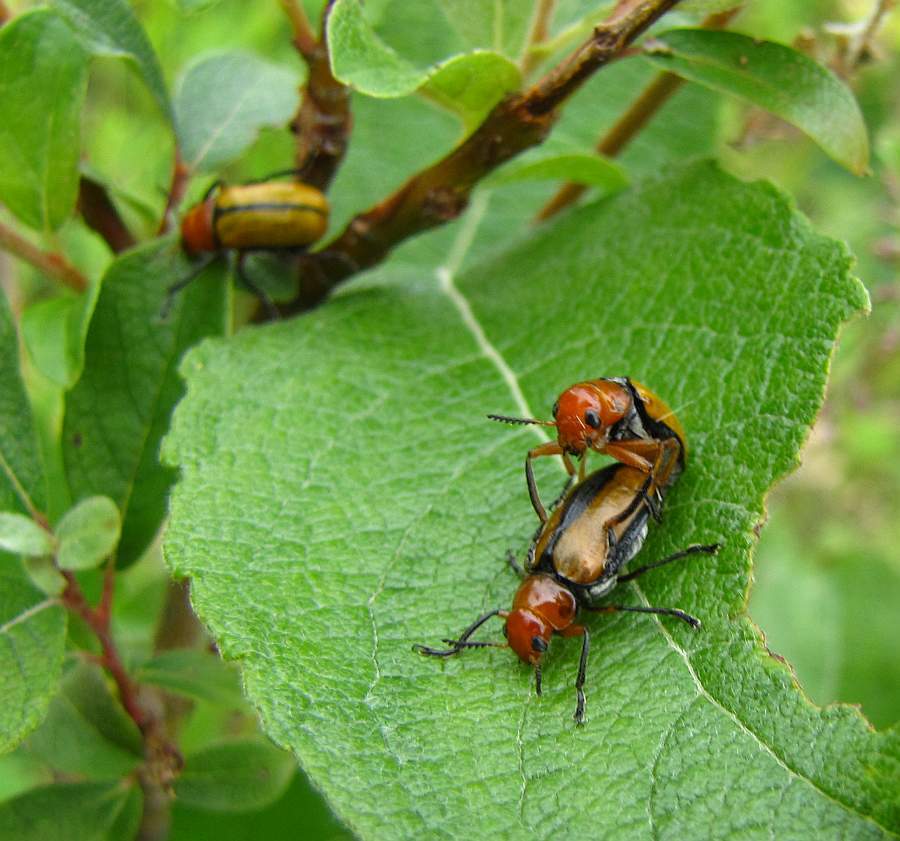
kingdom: Animalia
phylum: Arthropoda
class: Insecta
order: Coleoptera
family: Chrysomelidae
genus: Anomoea
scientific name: Anomoea laticlavia
